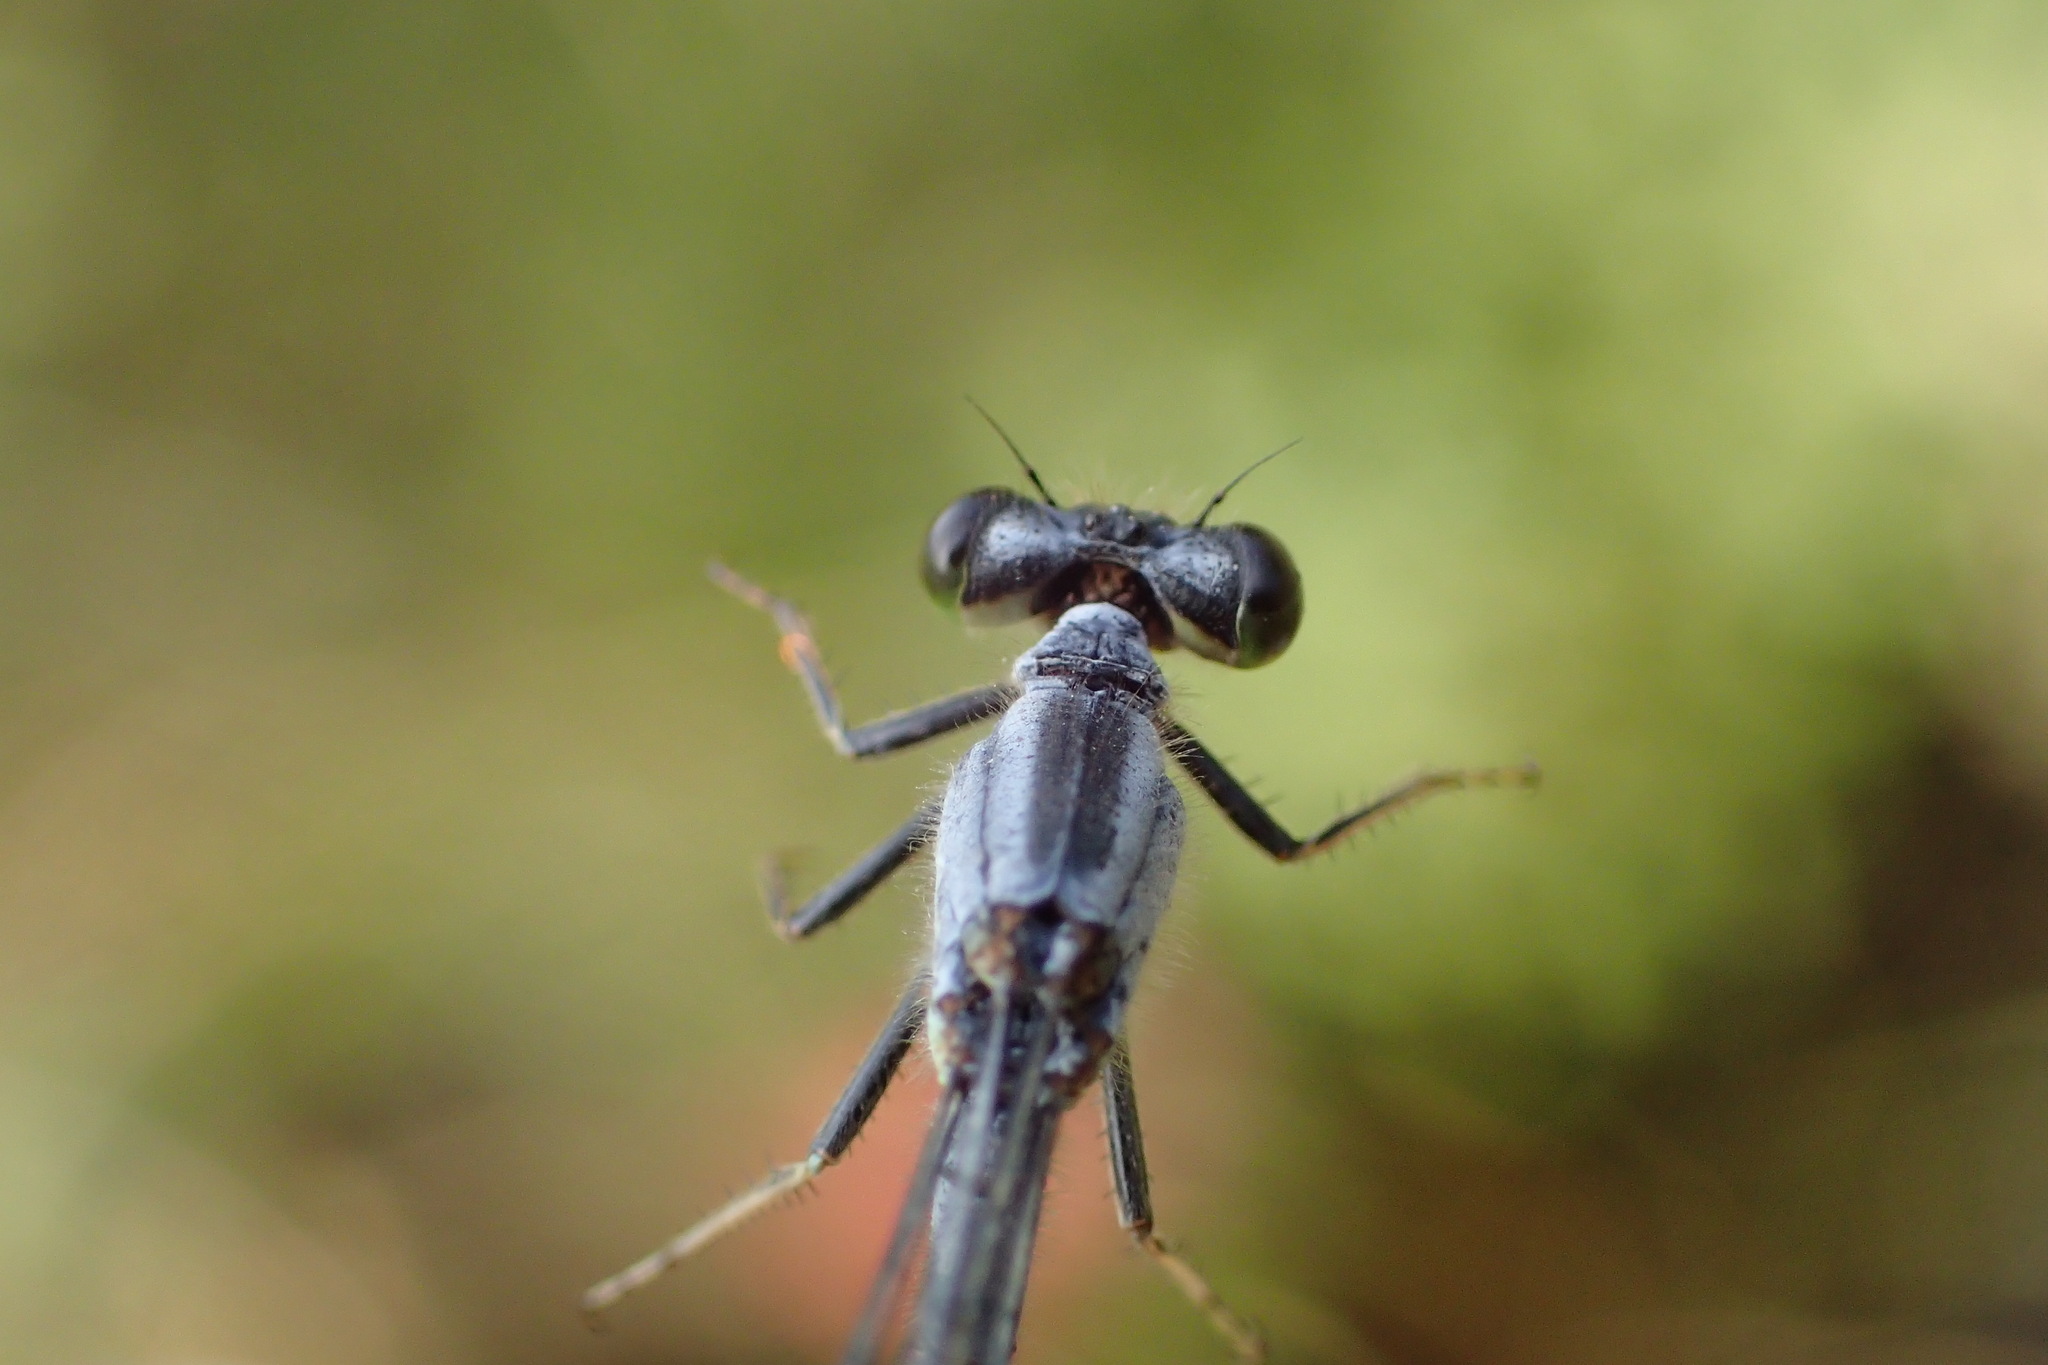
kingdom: Animalia
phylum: Arthropoda
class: Insecta
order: Odonata
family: Coenagrionidae
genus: Ischnura
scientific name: Ischnura verticalis
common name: Eastern forktail
